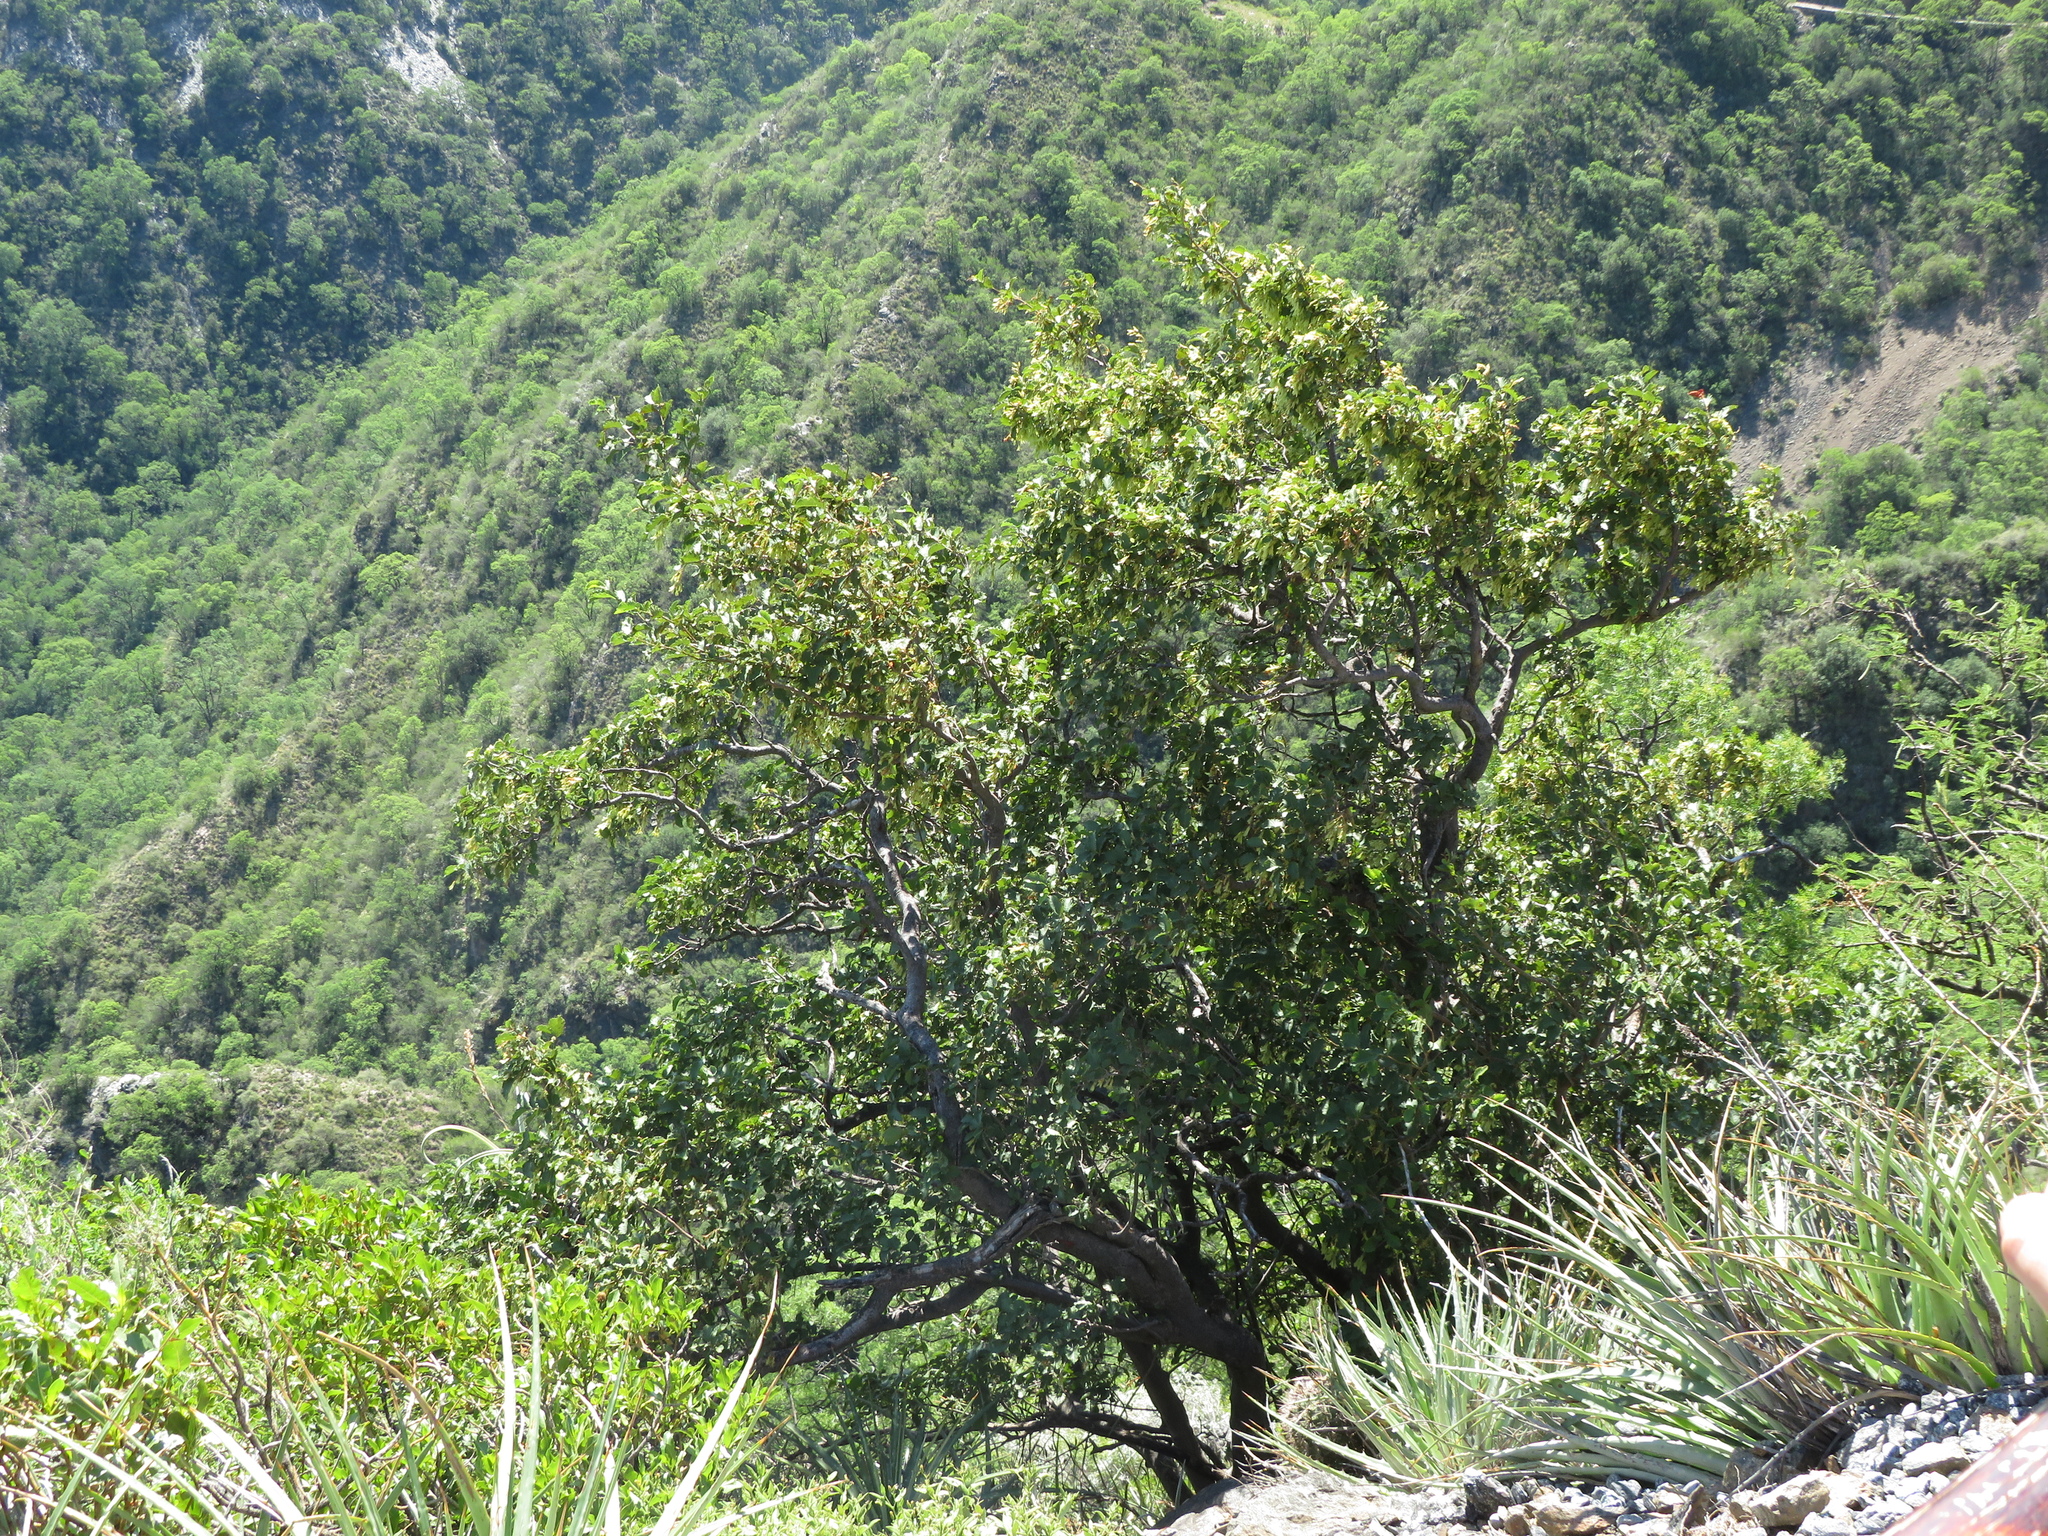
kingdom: Plantae
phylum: Tracheophyta
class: Magnoliopsida
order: Caryophyllales
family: Polygonaceae
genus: Ruprechtia
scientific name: Ruprechtia apetala
